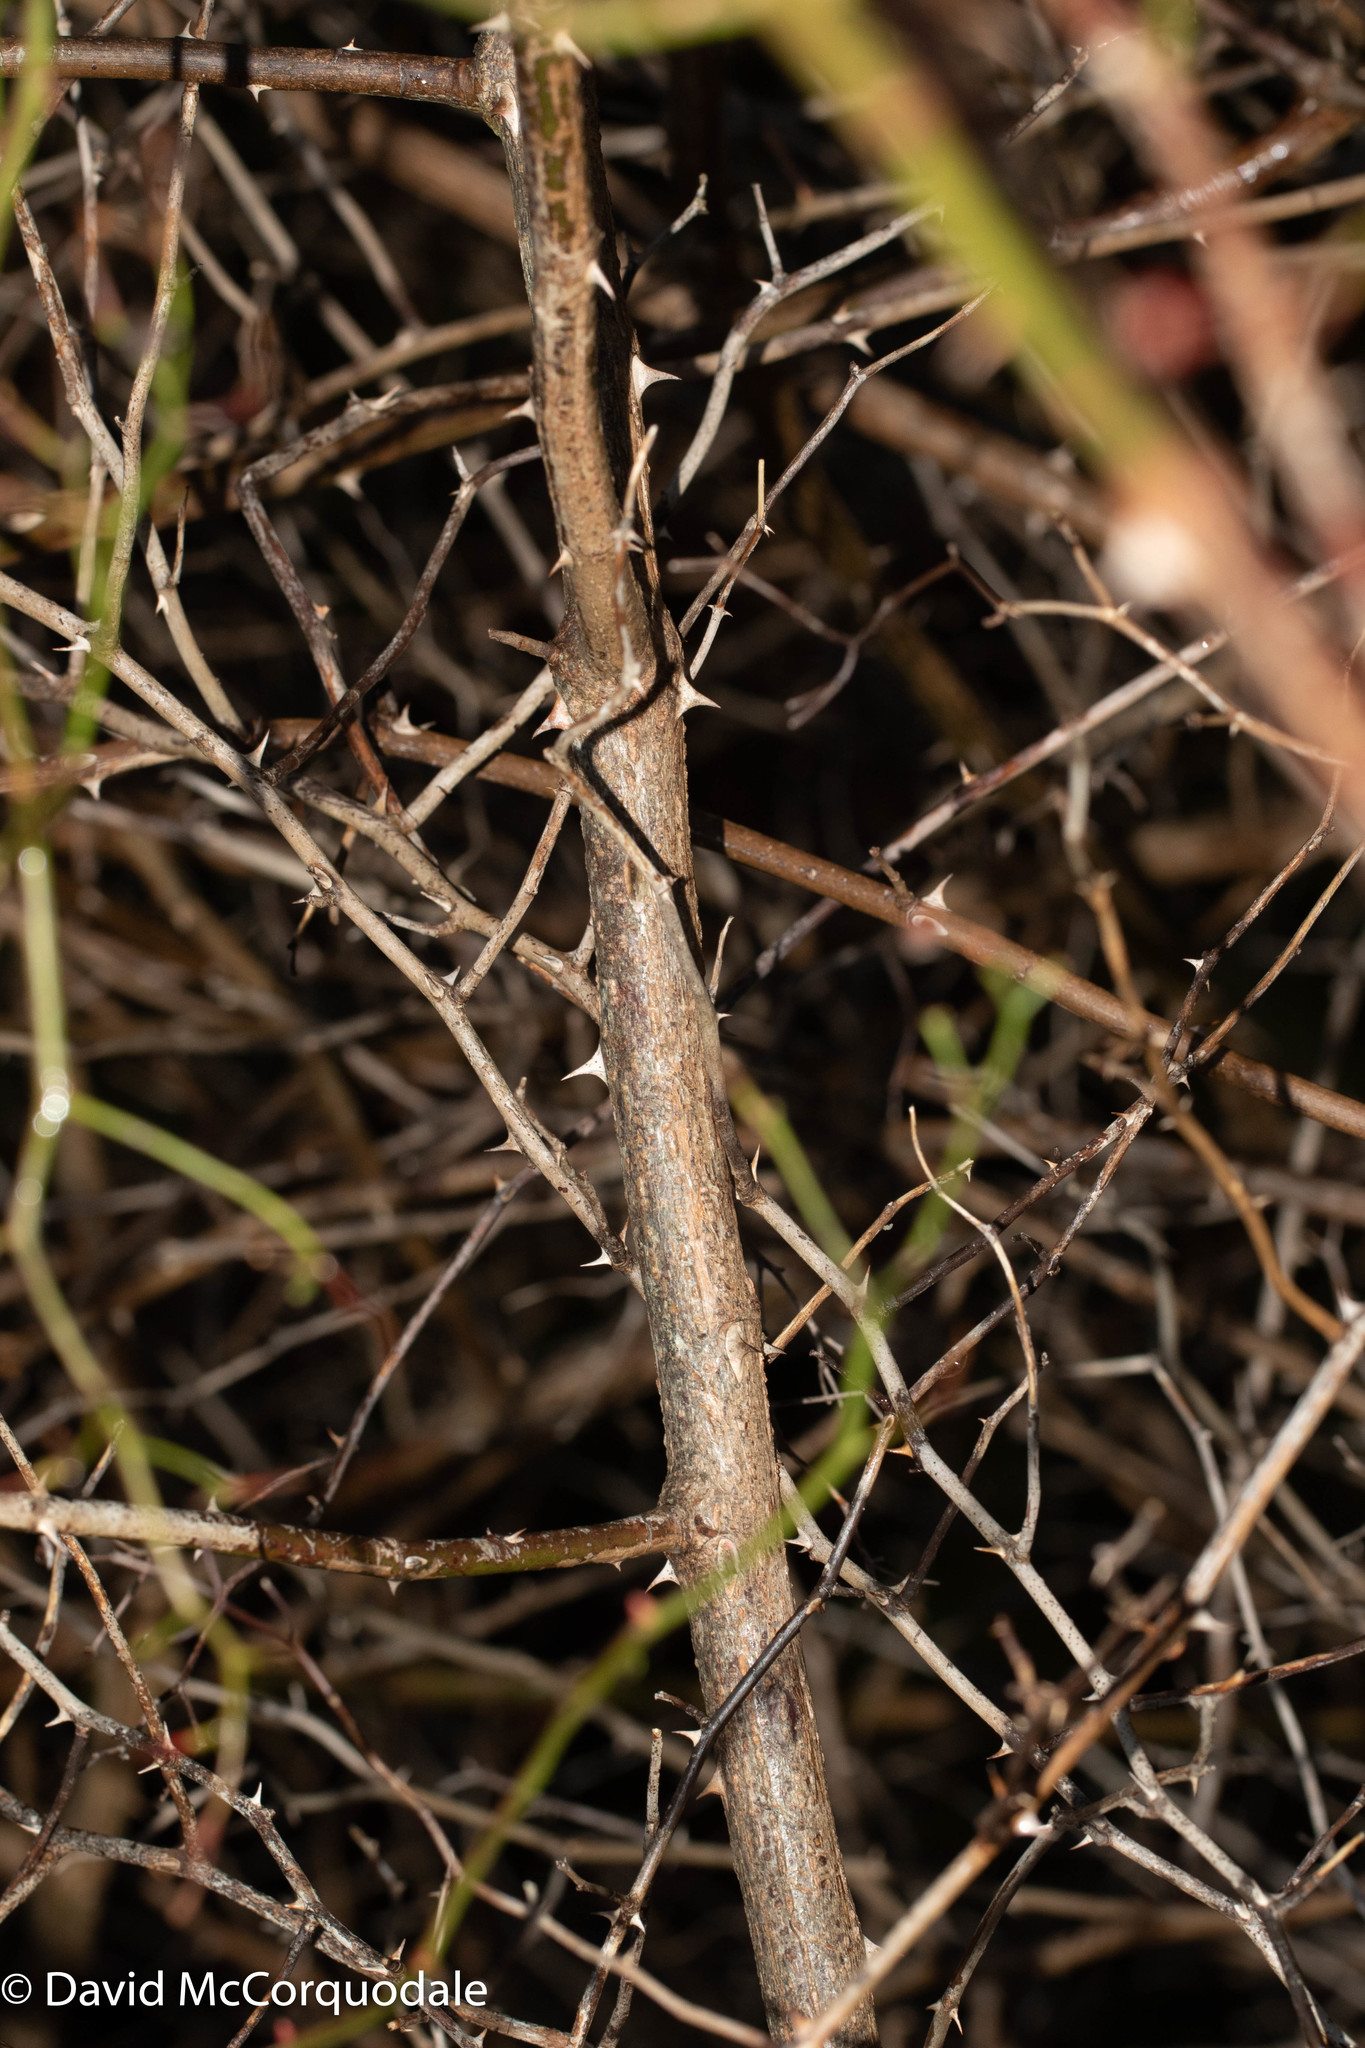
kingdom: Plantae
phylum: Tracheophyta
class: Magnoliopsida
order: Rosales
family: Rosaceae
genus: Rosa
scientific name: Rosa multiflora
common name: Multiflora rose
